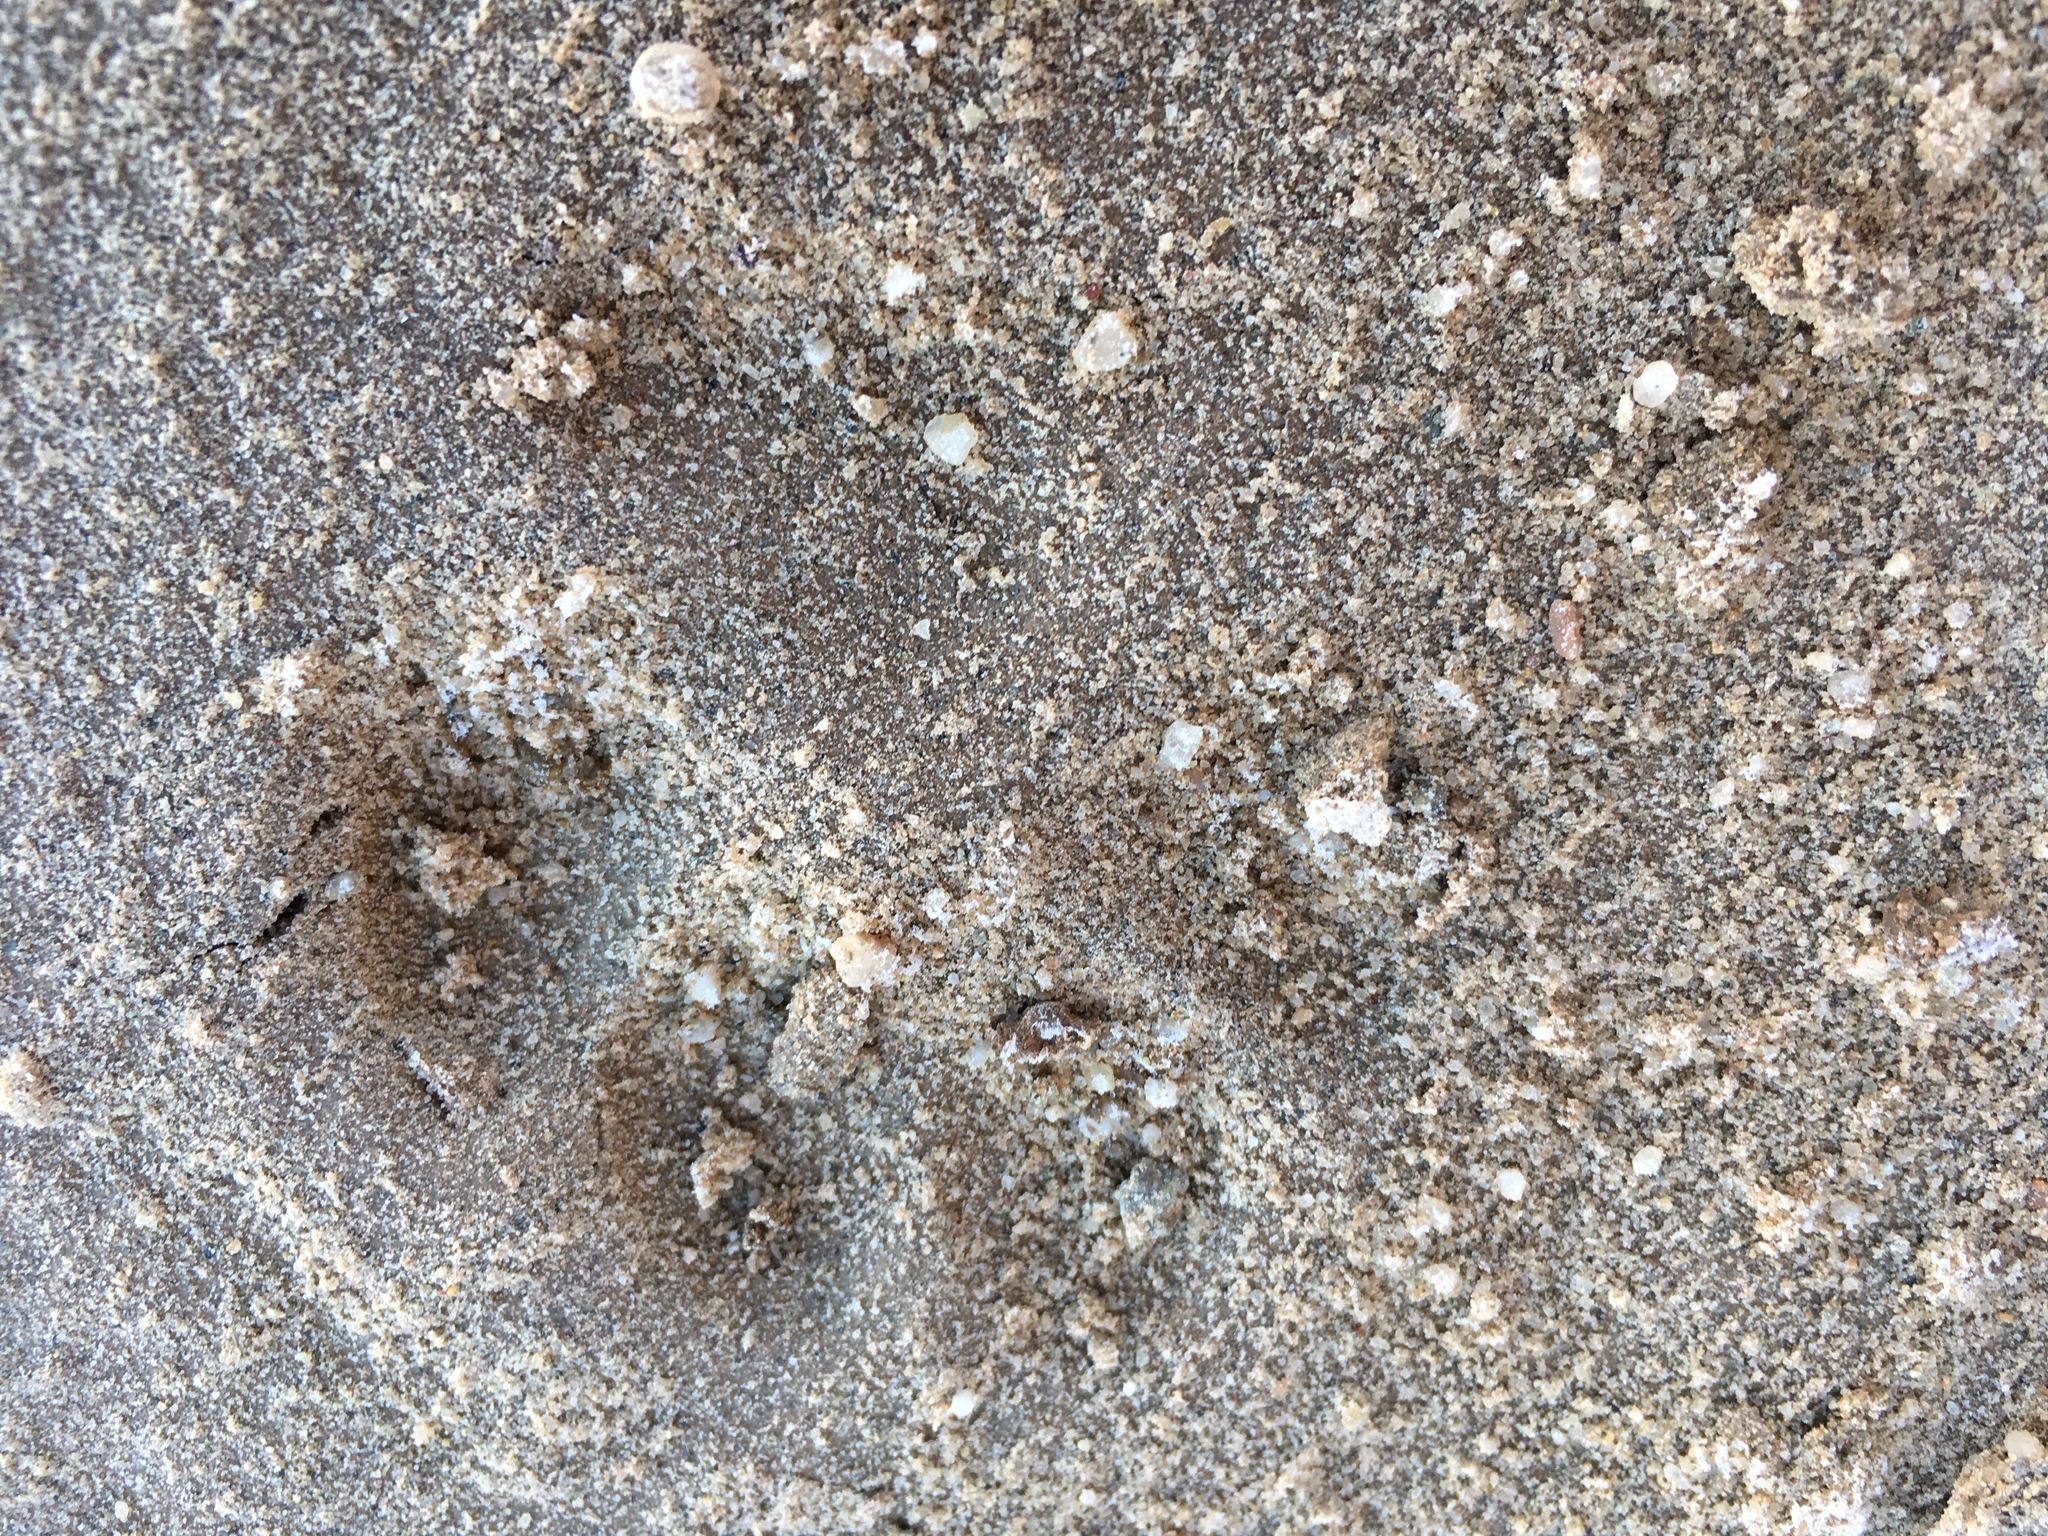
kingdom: Animalia
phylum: Chordata
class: Mammalia
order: Carnivora
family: Felidae
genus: Lynx
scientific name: Lynx rufus
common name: Bobcat
